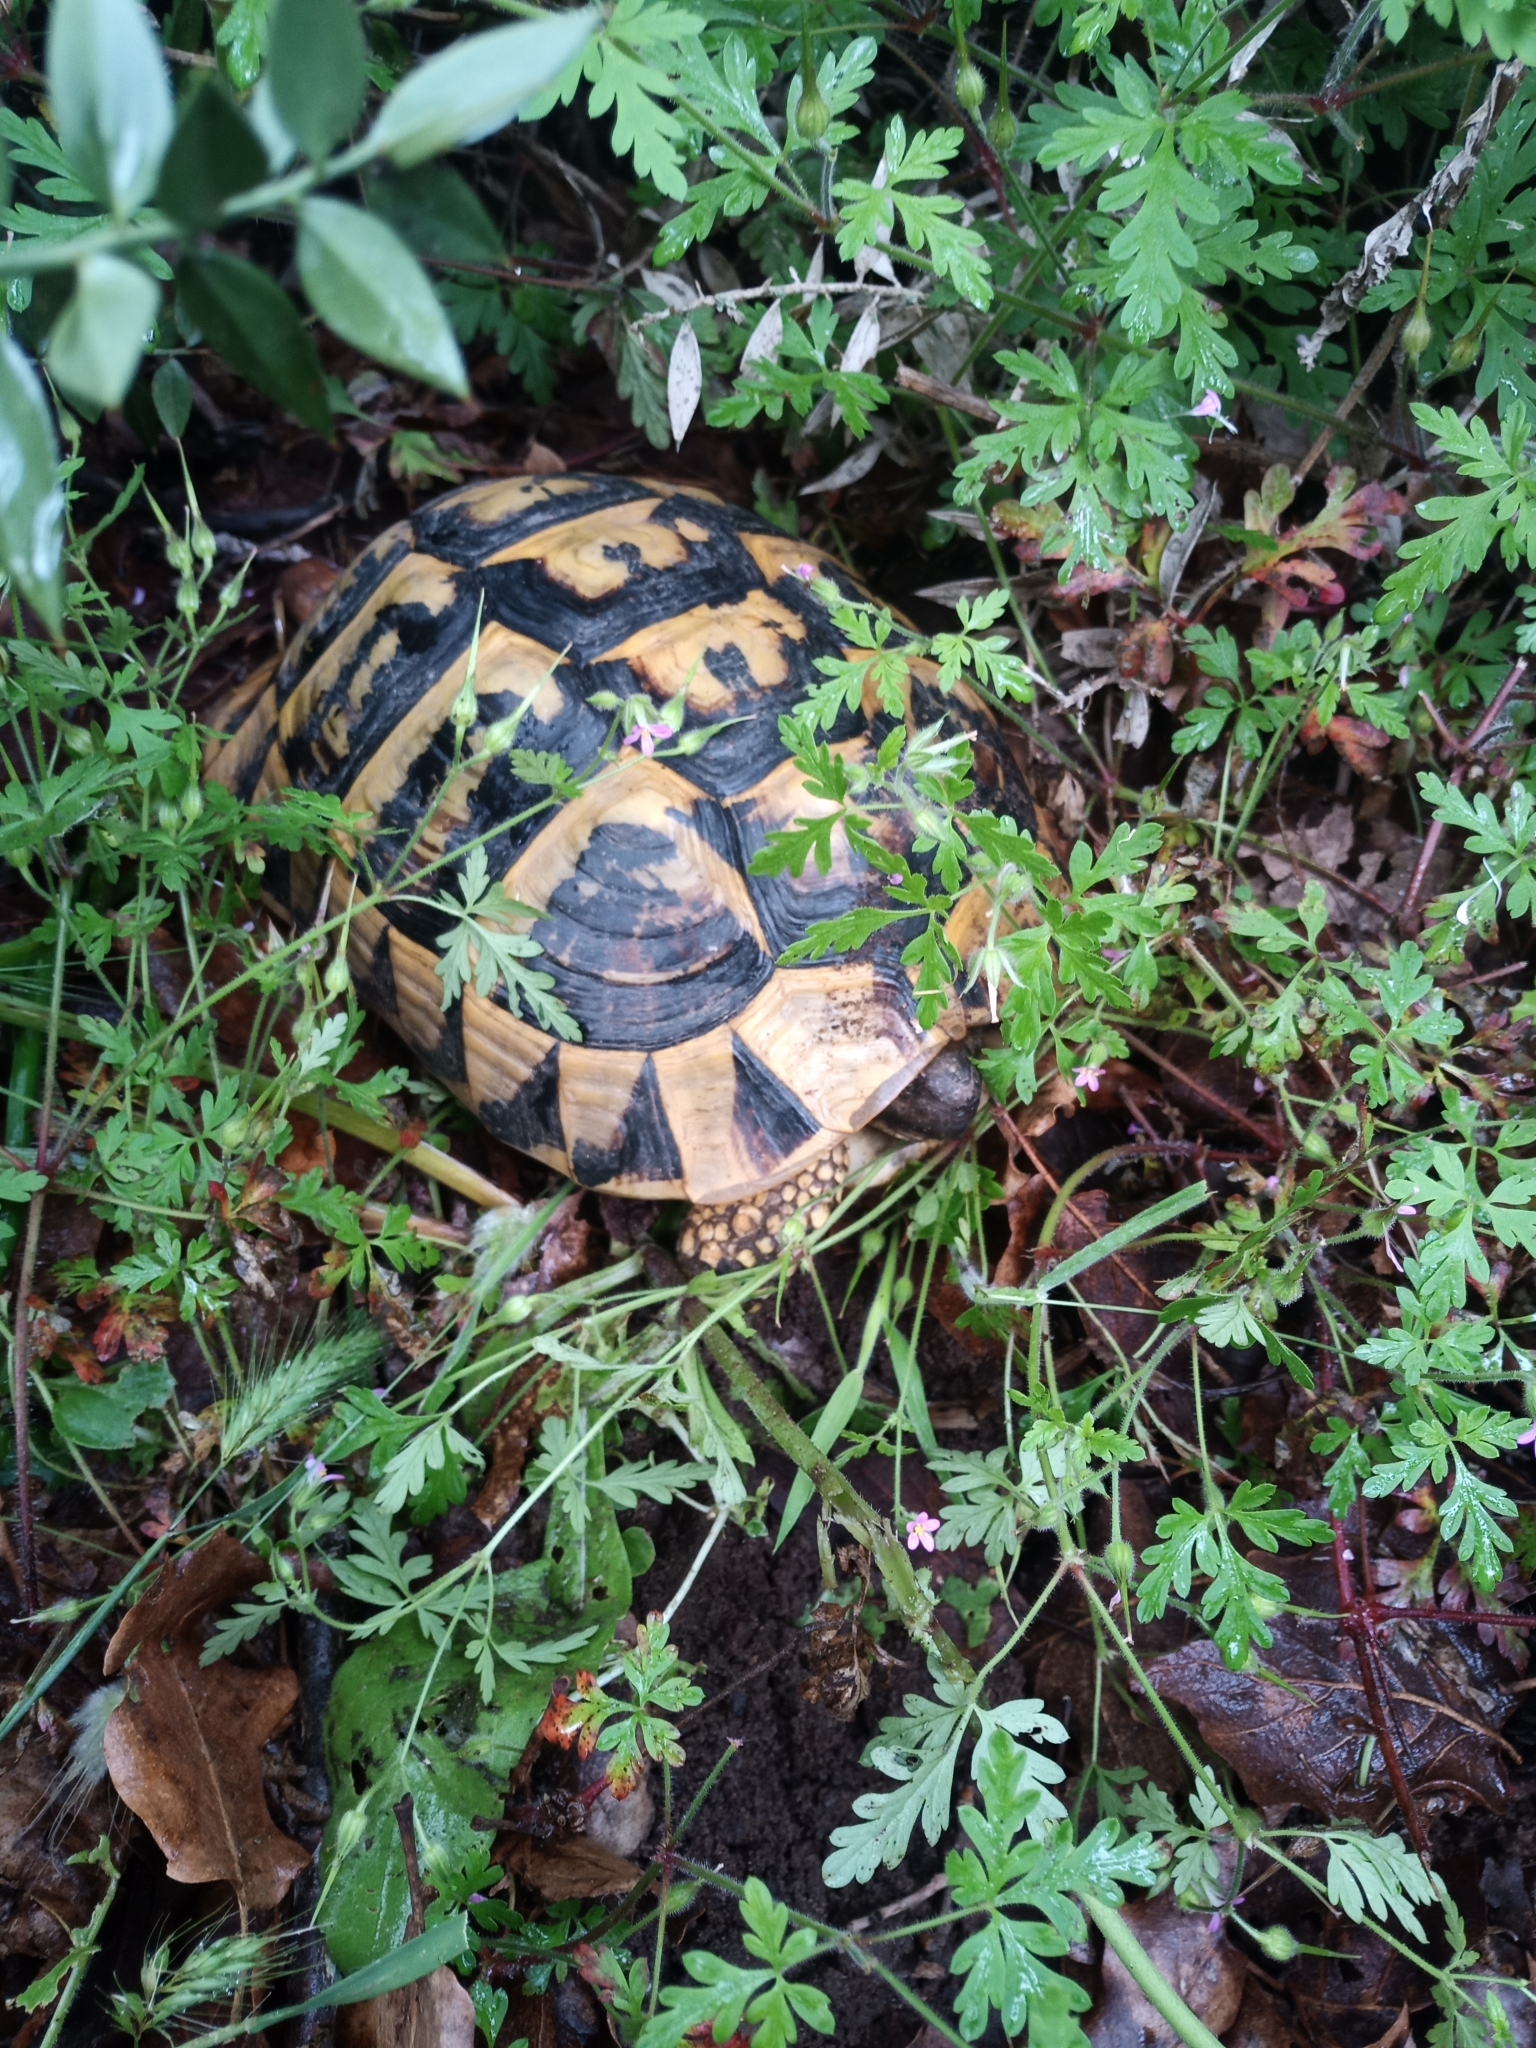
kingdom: Animalia
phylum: Chordata
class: Testudines
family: Testudinidae
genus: Testudo
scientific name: Testudo hermanni
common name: Hermann's tortoise
